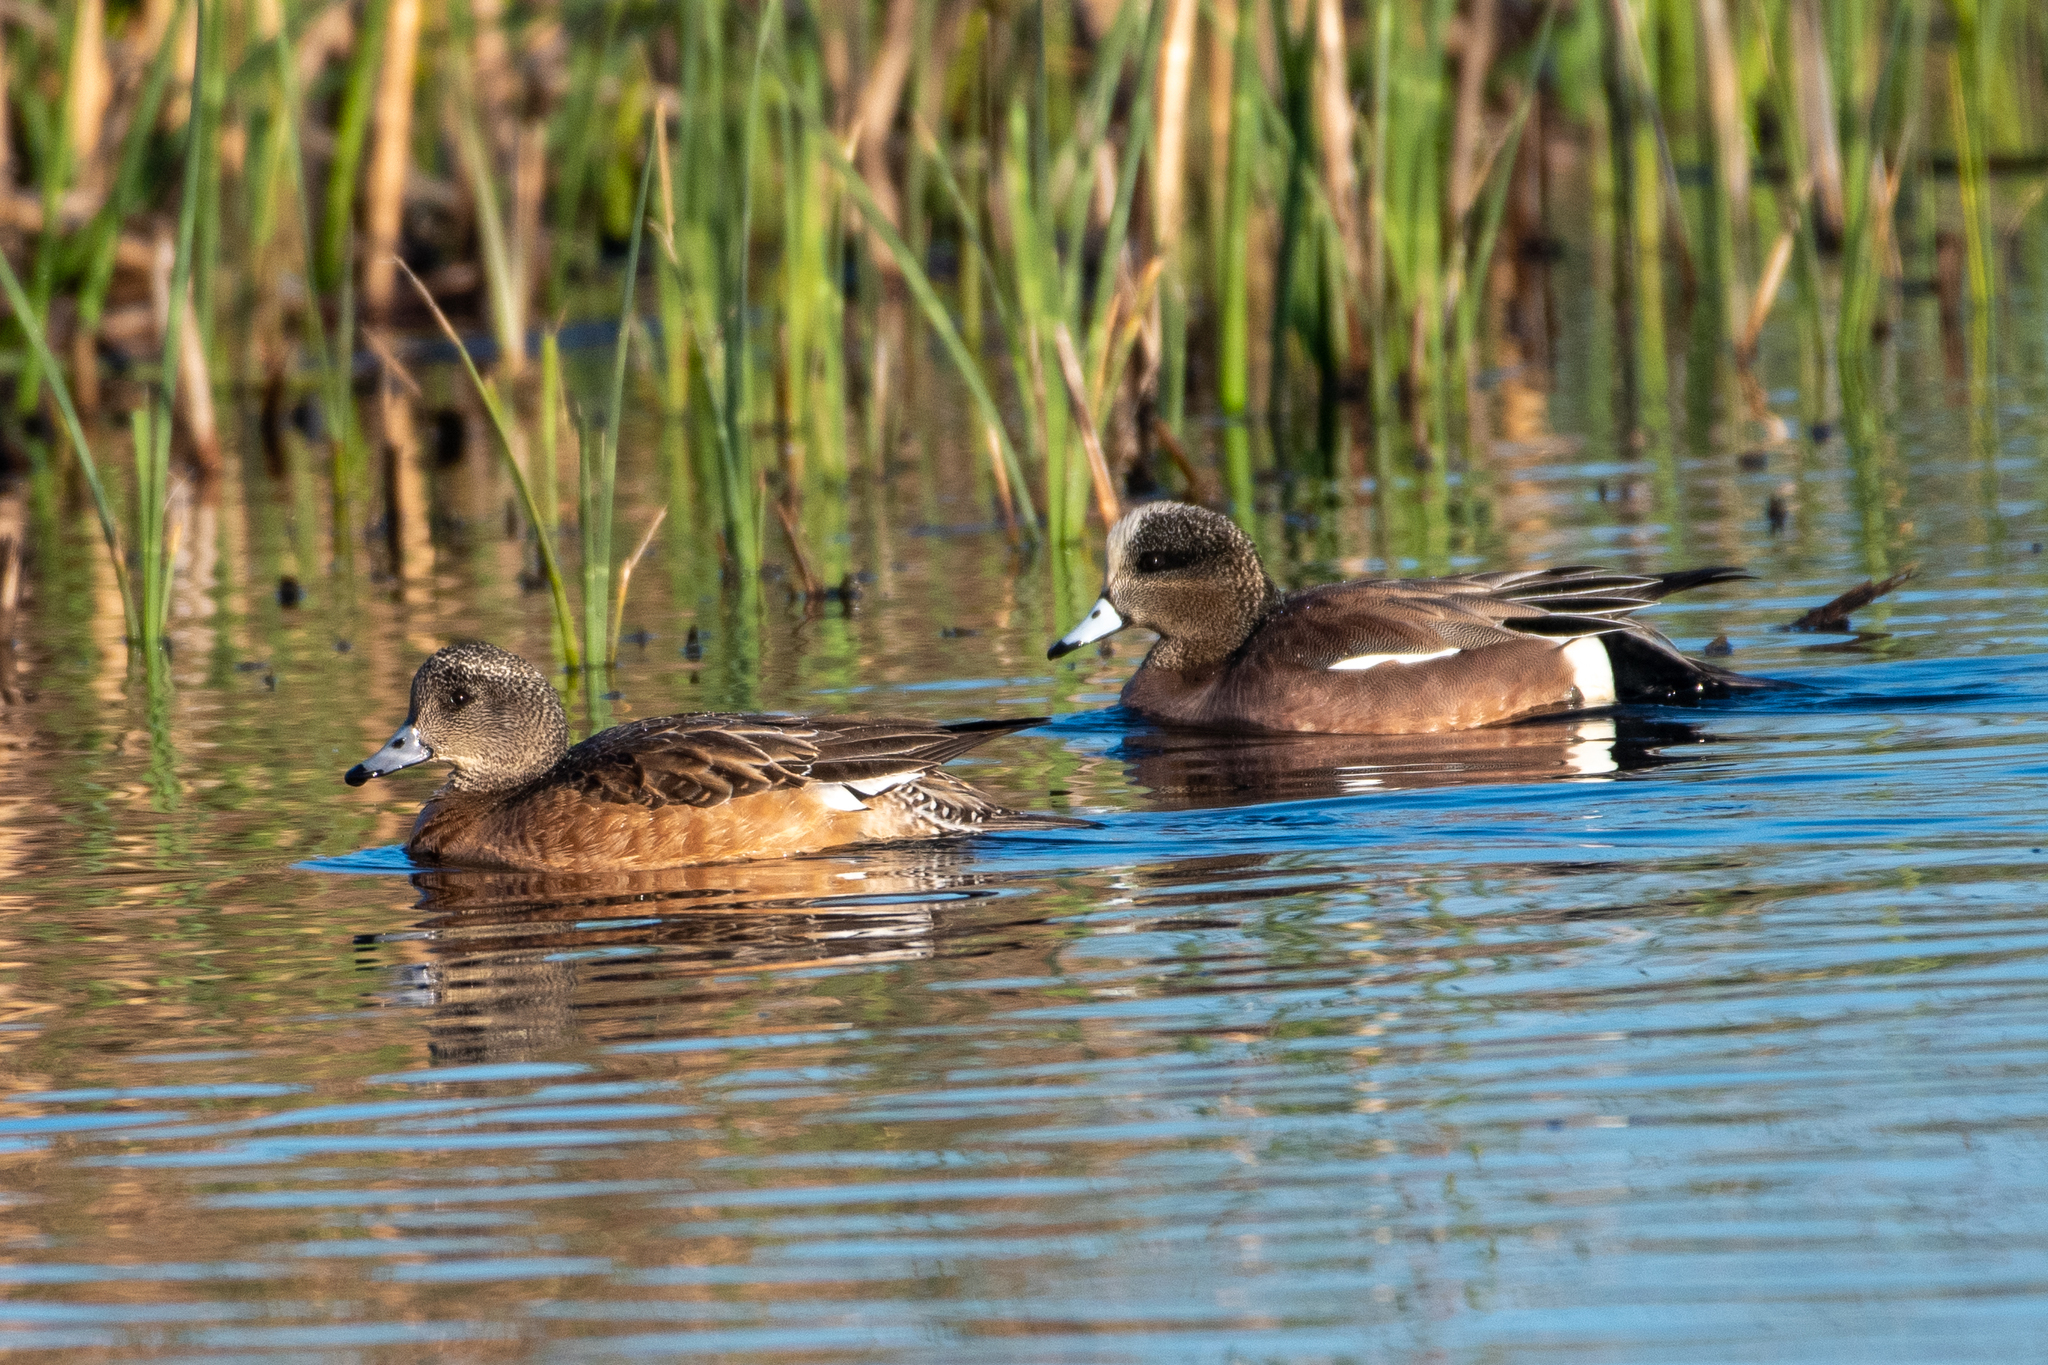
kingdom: Animalia
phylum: Chordata
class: Aves
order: Anseriformes
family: Anatidae
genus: Mareca
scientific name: Mareca americana
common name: American wigeon
